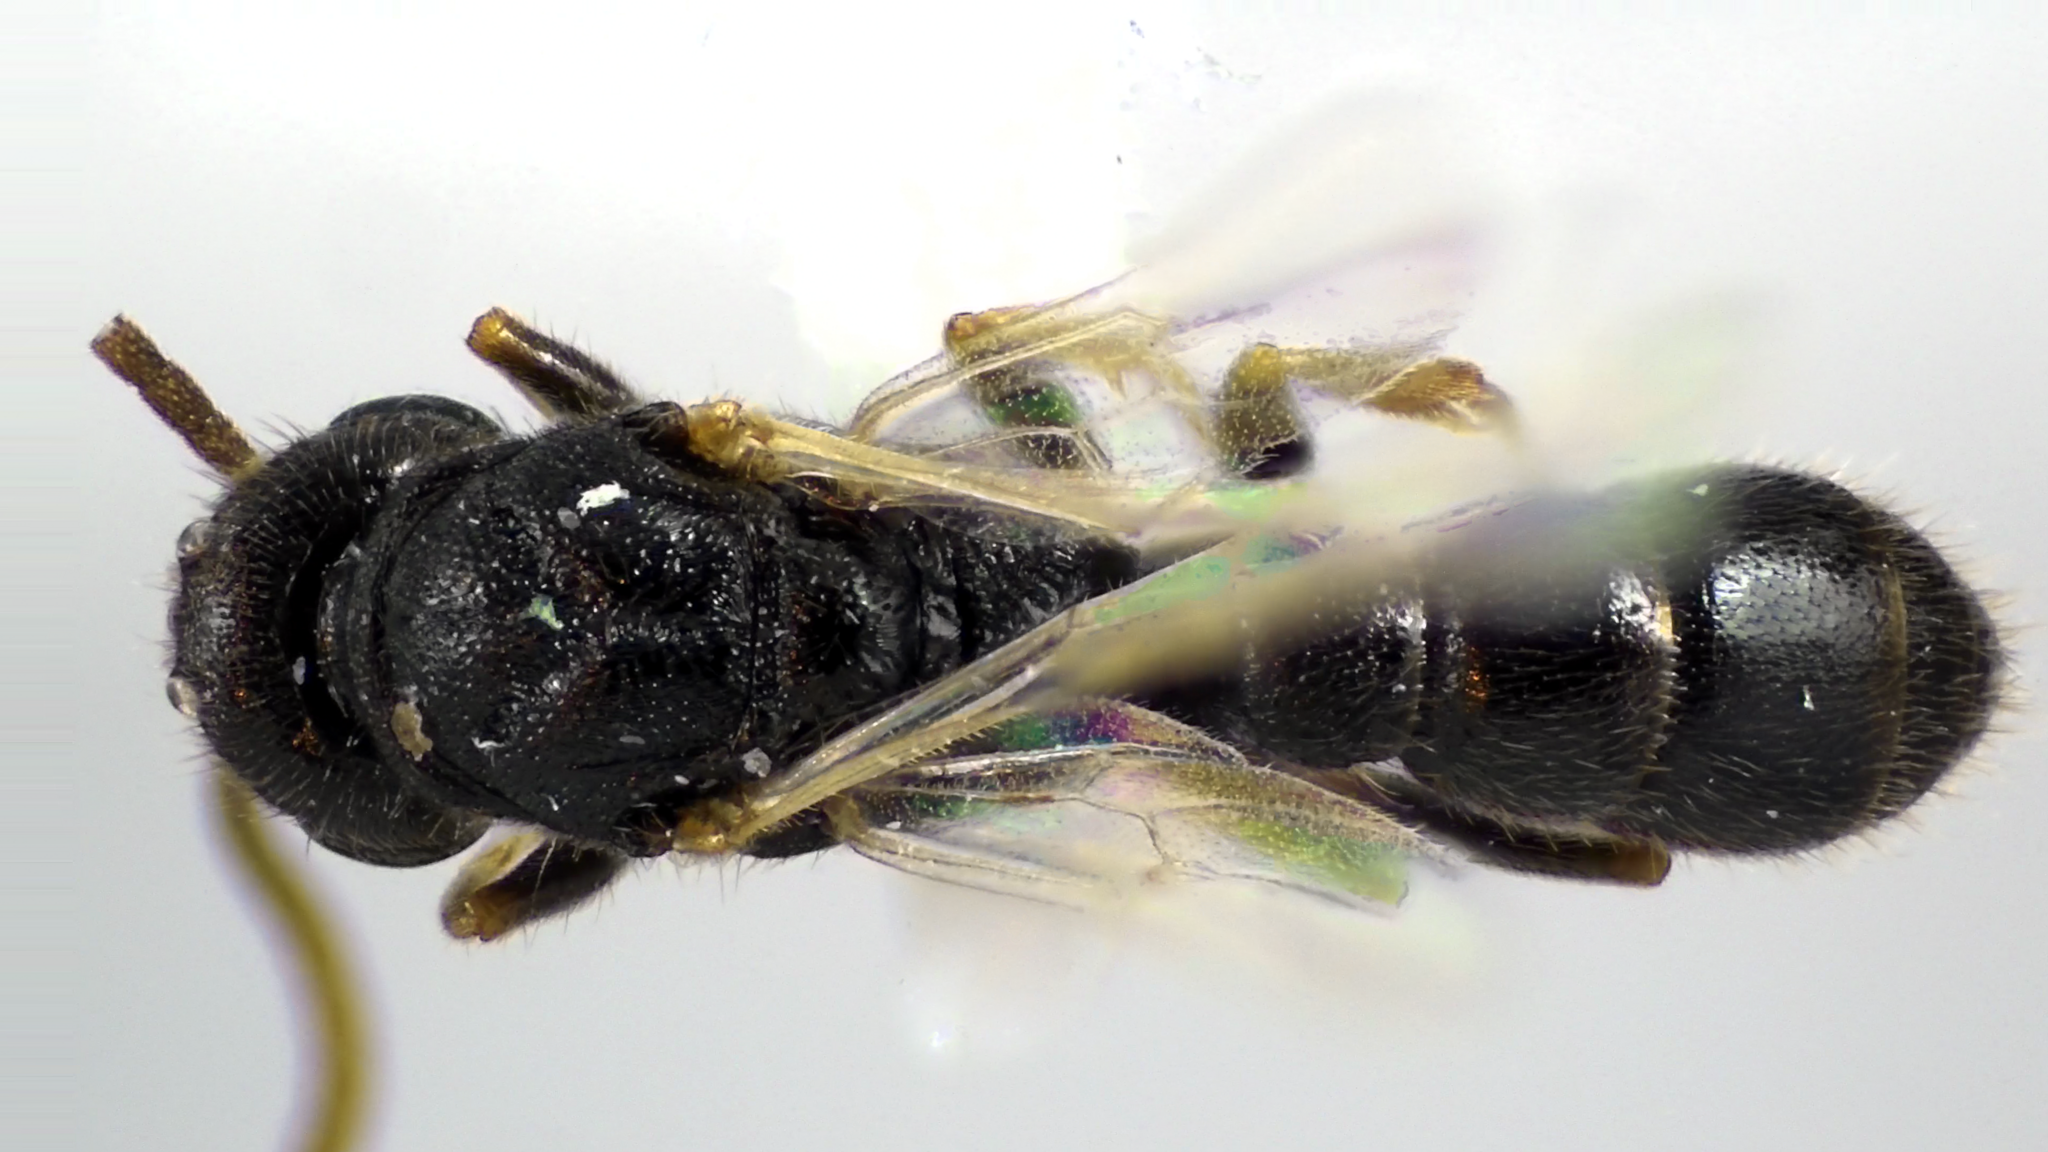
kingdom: Animalia
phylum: Arthropoda
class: Insecta
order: Hymenoptera
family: Formicidae
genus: Stigmatomma
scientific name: Stigmatomma pallipes
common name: Vampire ant
